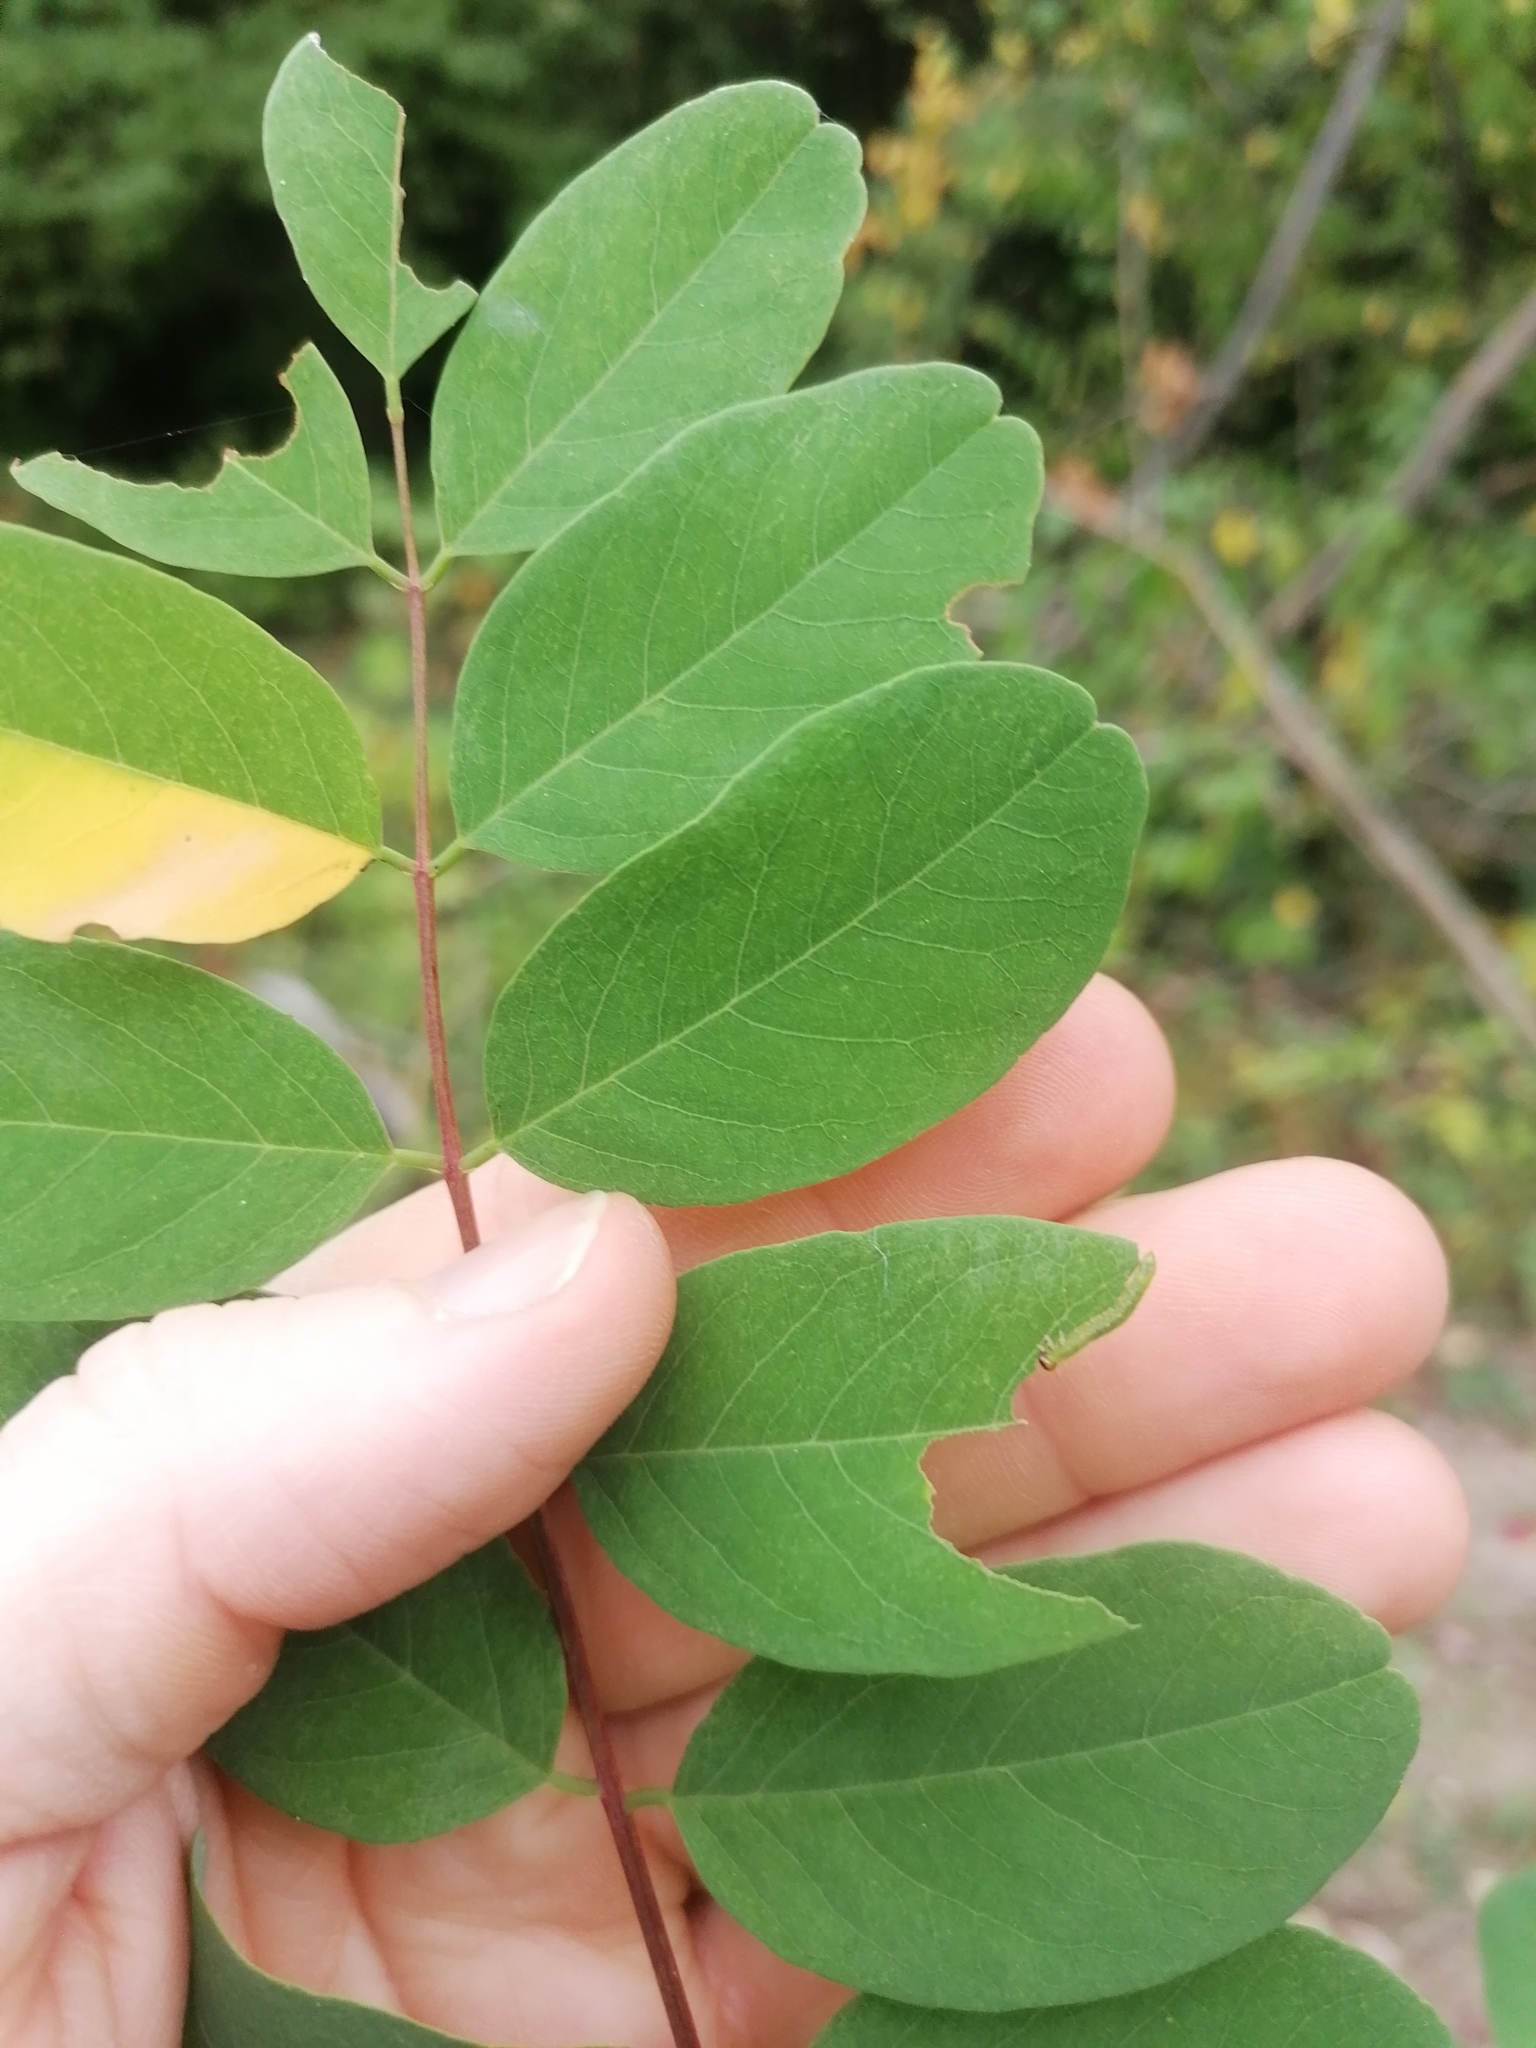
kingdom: Animalia
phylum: Arthropoda
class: Insecta
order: Hymenoptera
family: Tenthredinidae
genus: Euura
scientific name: Euura tibialis
